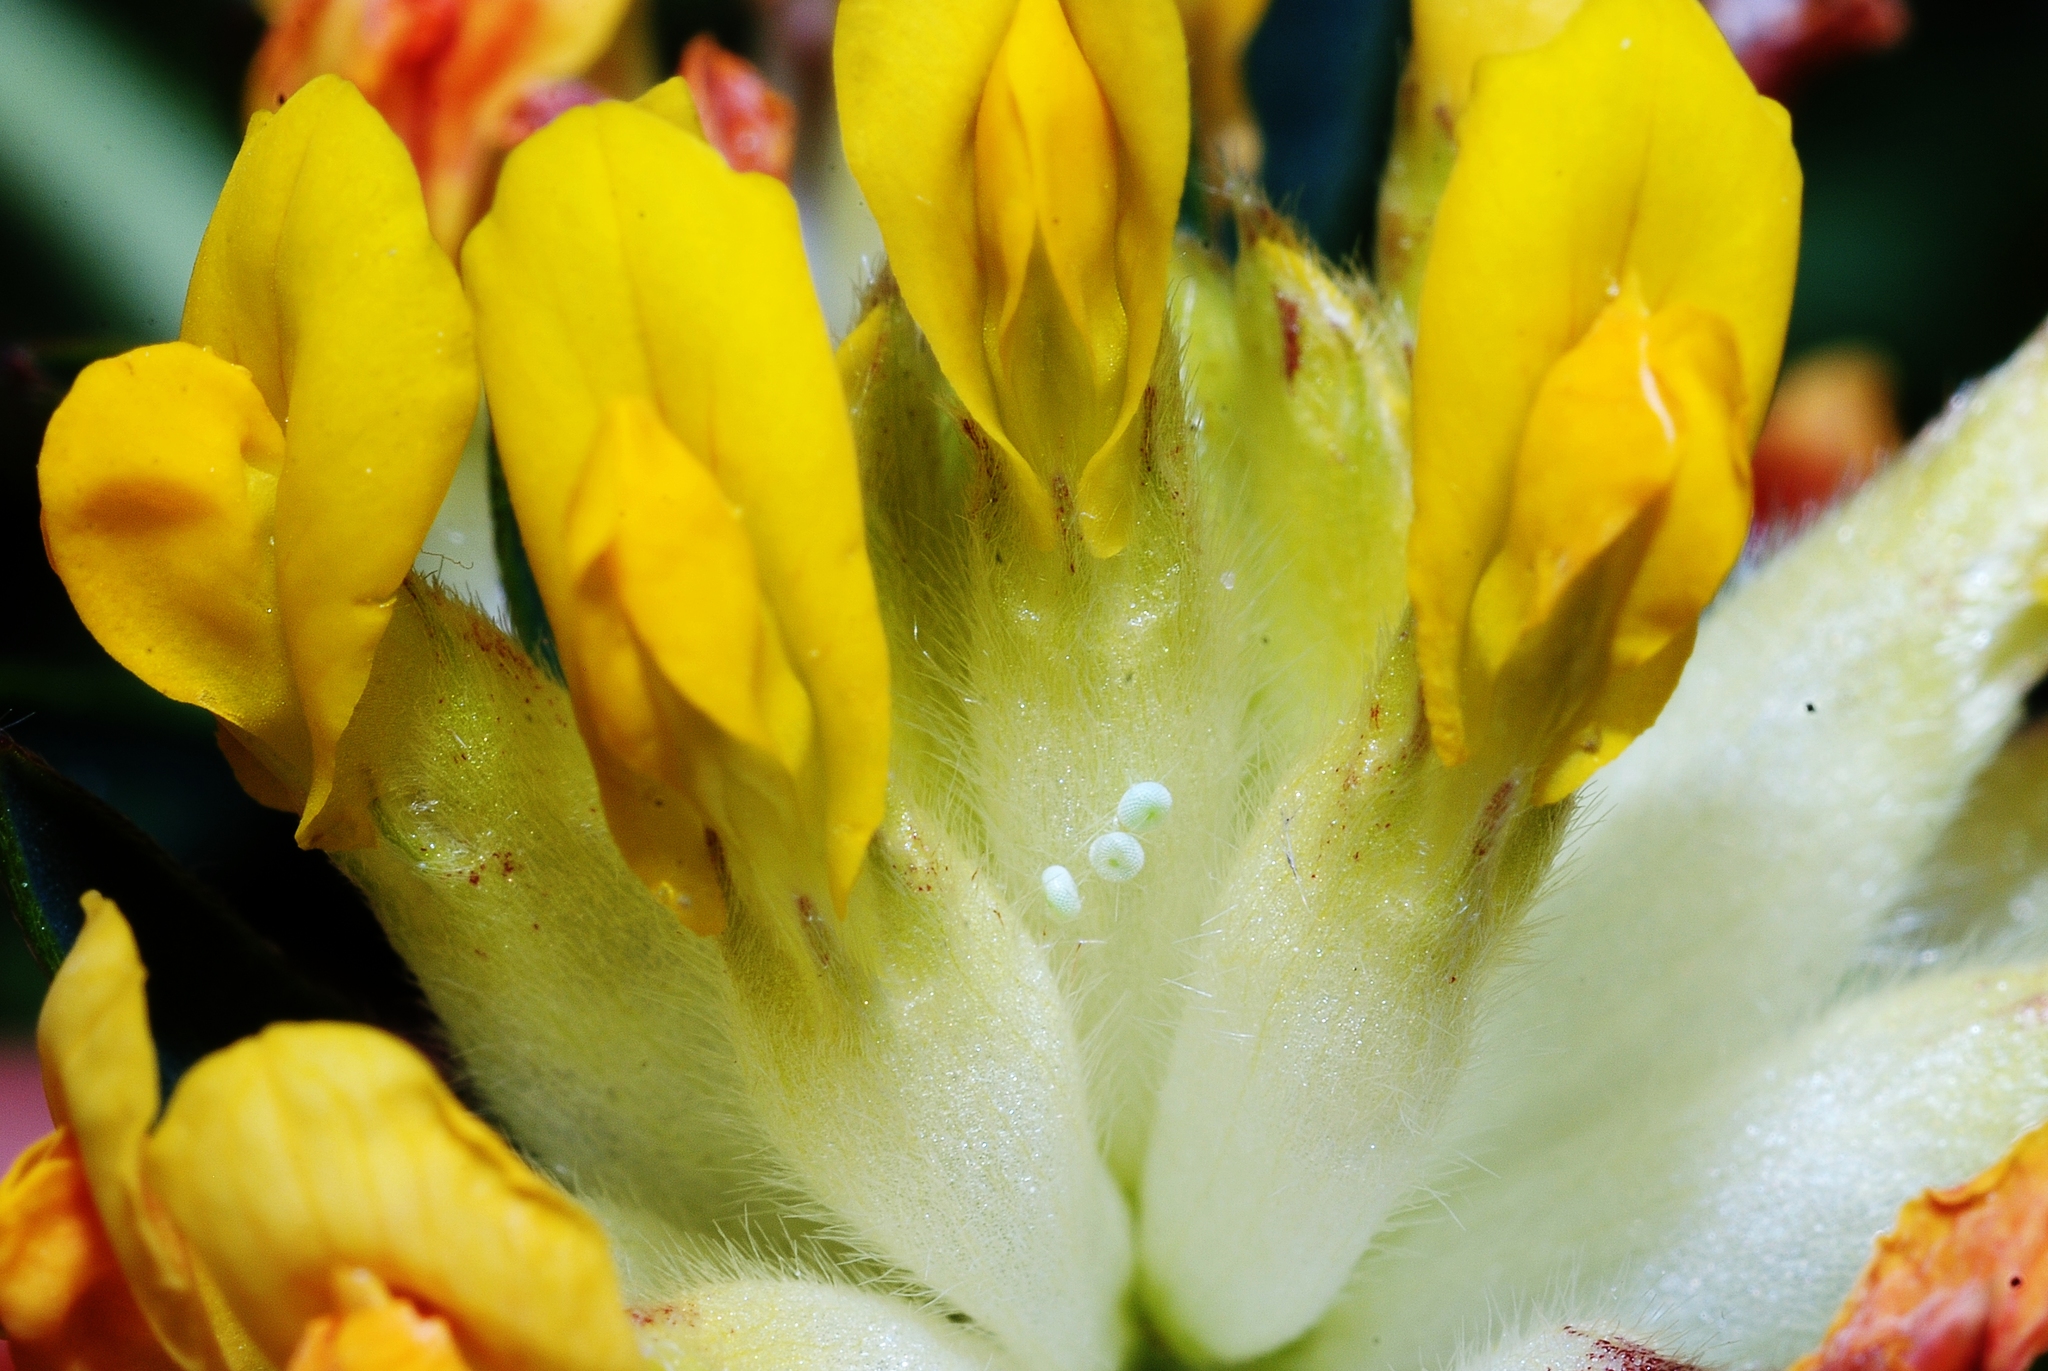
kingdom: Animalia
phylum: Arthropoda
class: Insecta
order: Lepidoptera
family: Lycaenidae
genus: Cupido
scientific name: Cupido minimus
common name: Small blue
